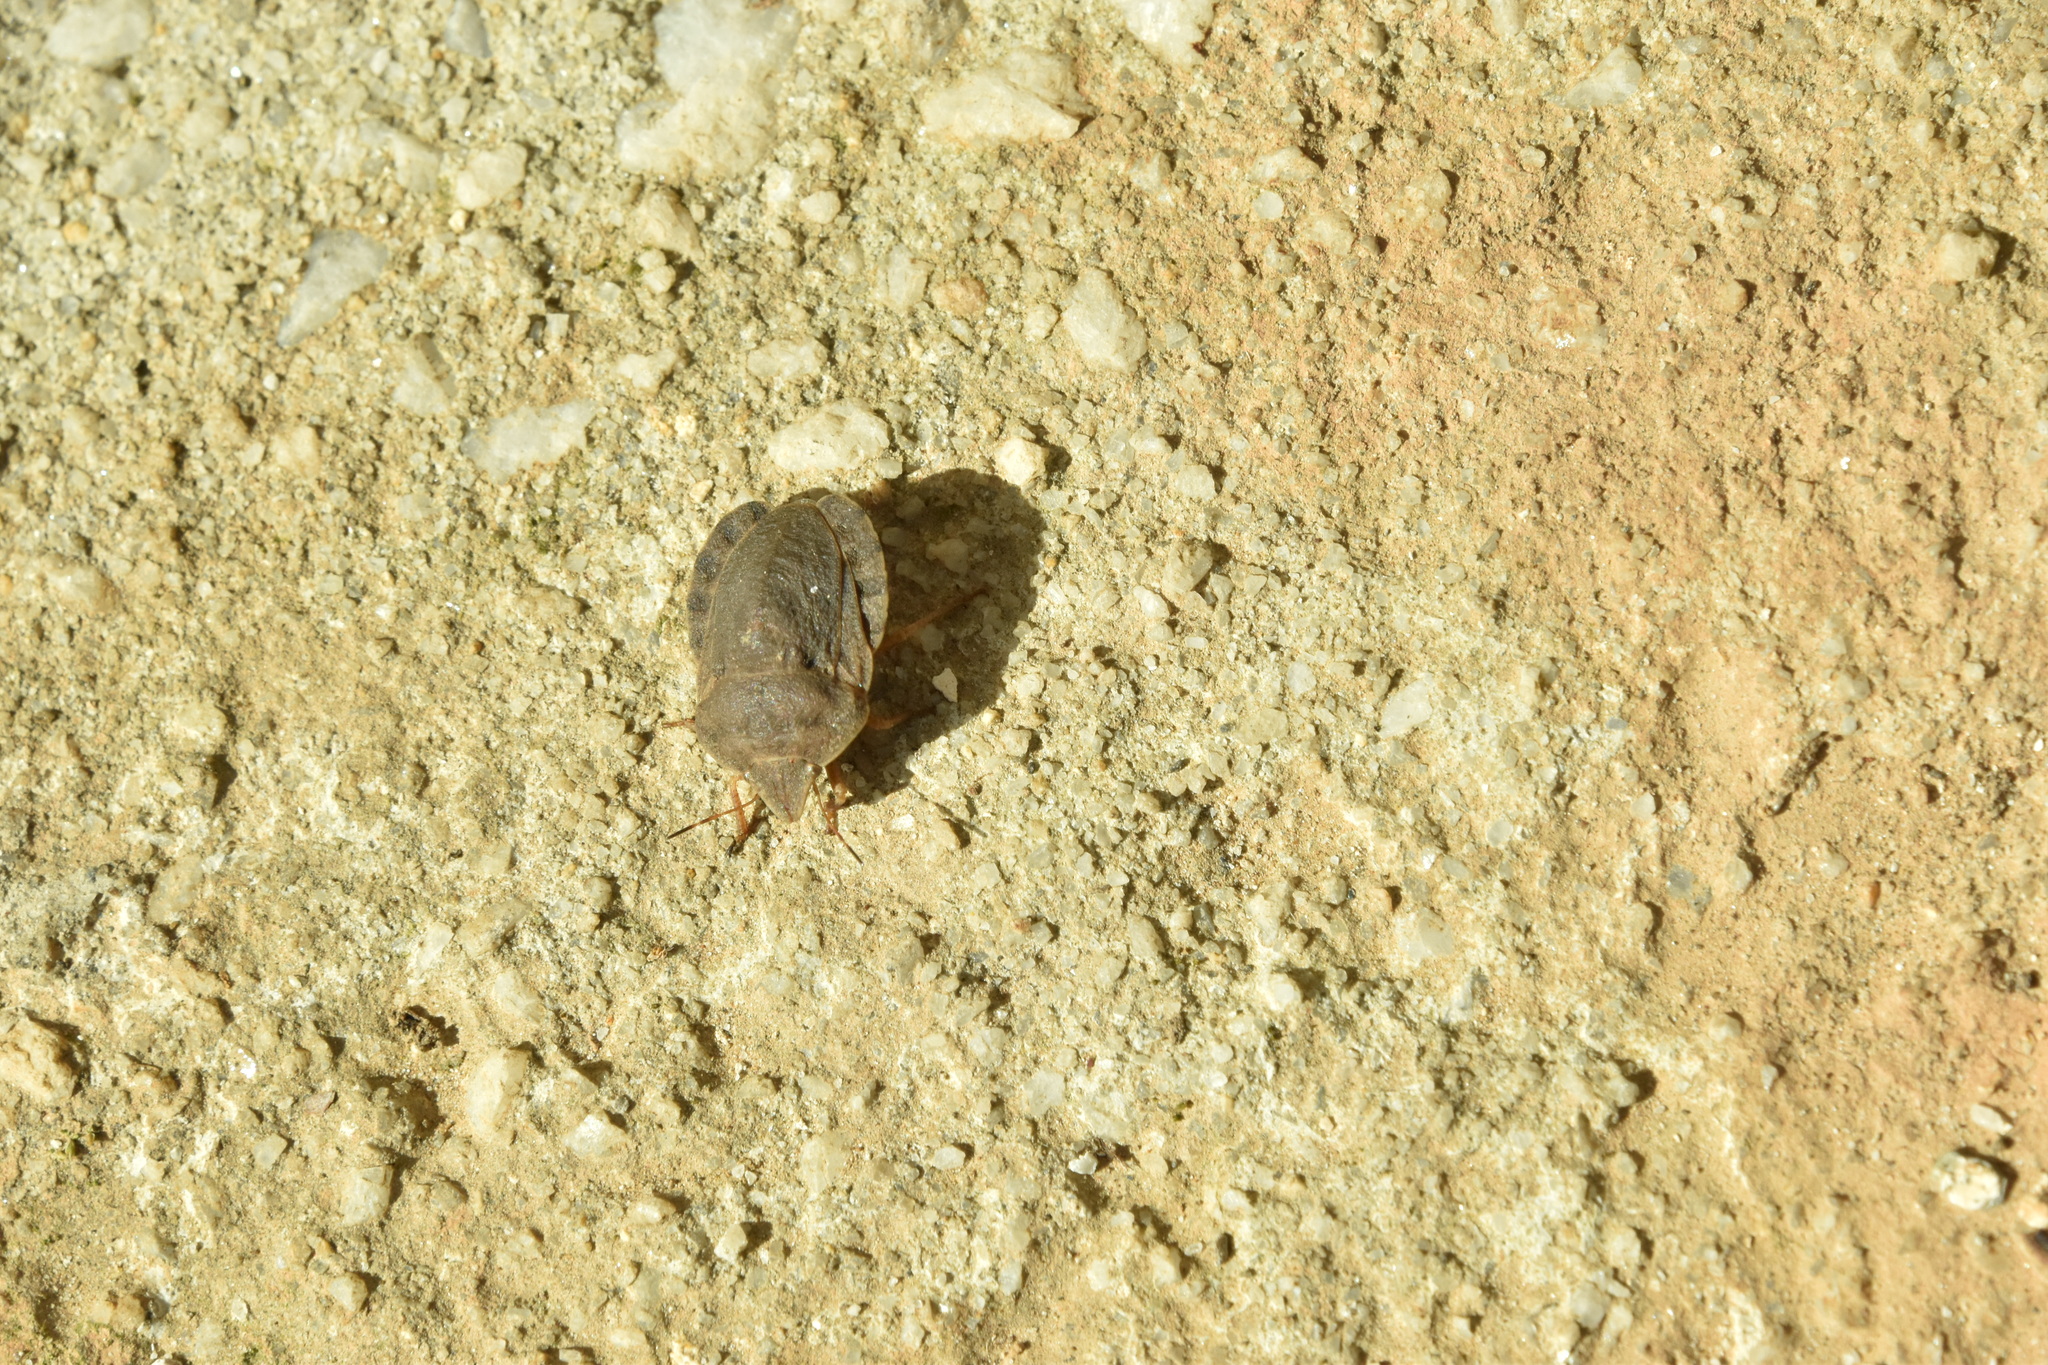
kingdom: Animalia
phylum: Arthropoda
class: Insecta
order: Hemiptera
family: Scutelleridae
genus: Eurygaster
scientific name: Eurygaster austriaca
